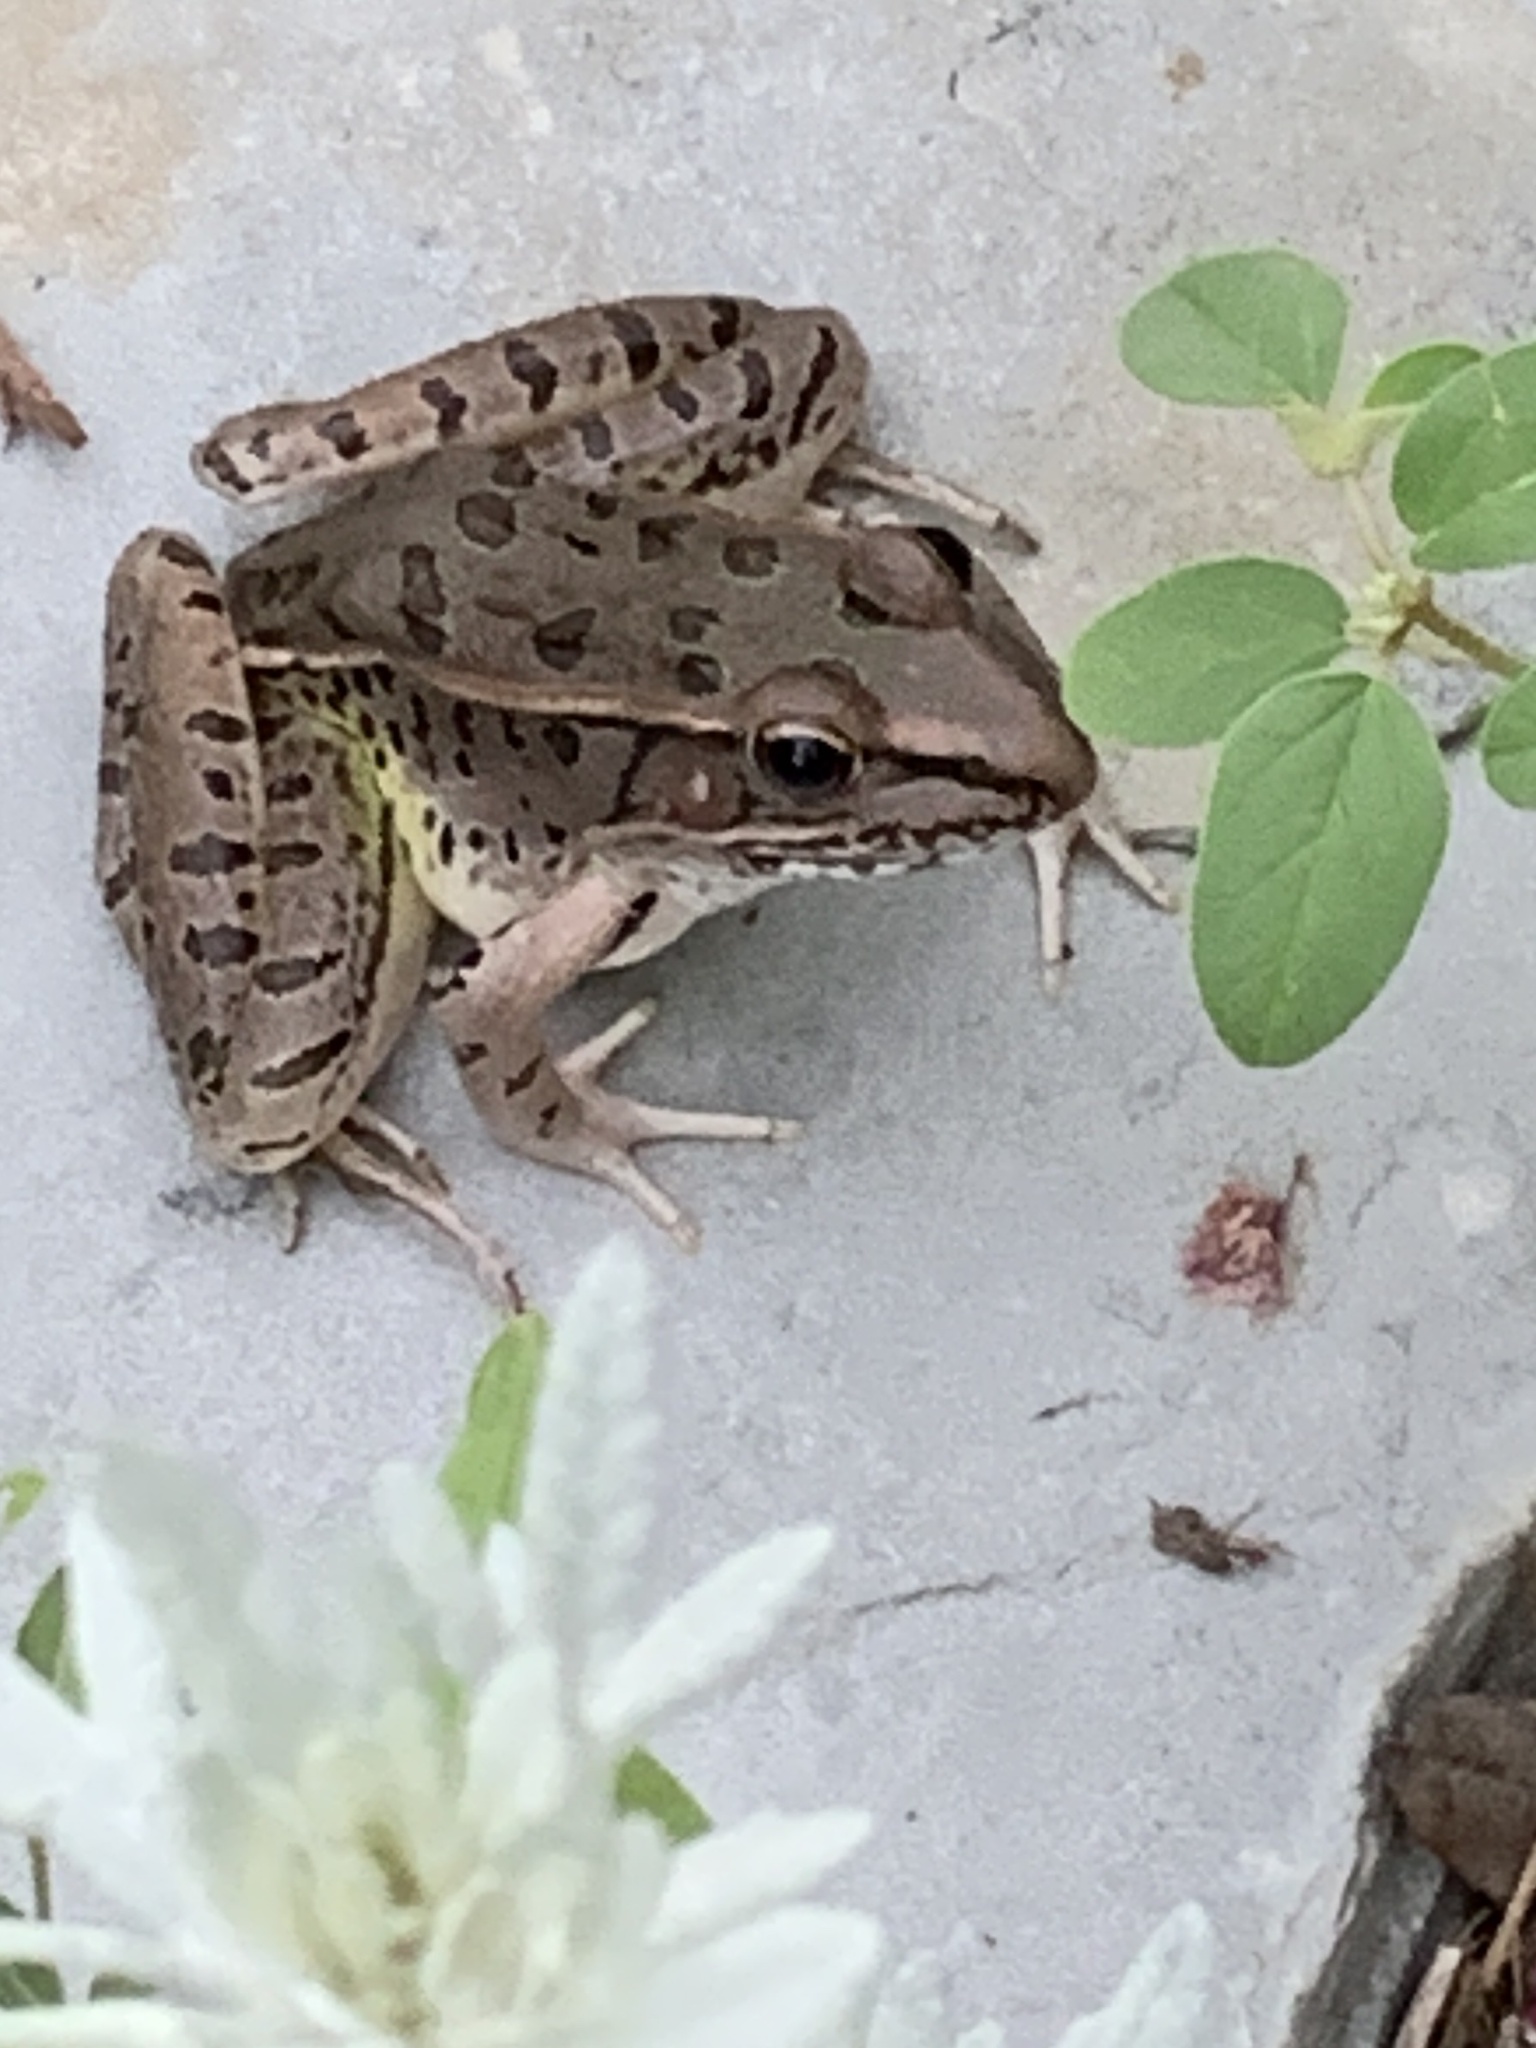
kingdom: Animalia
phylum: Chordata
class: Amphibia
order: Anura
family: Ranidae
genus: Lithobates
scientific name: Lithobates sphenocephalus
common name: Southern leopard frog
